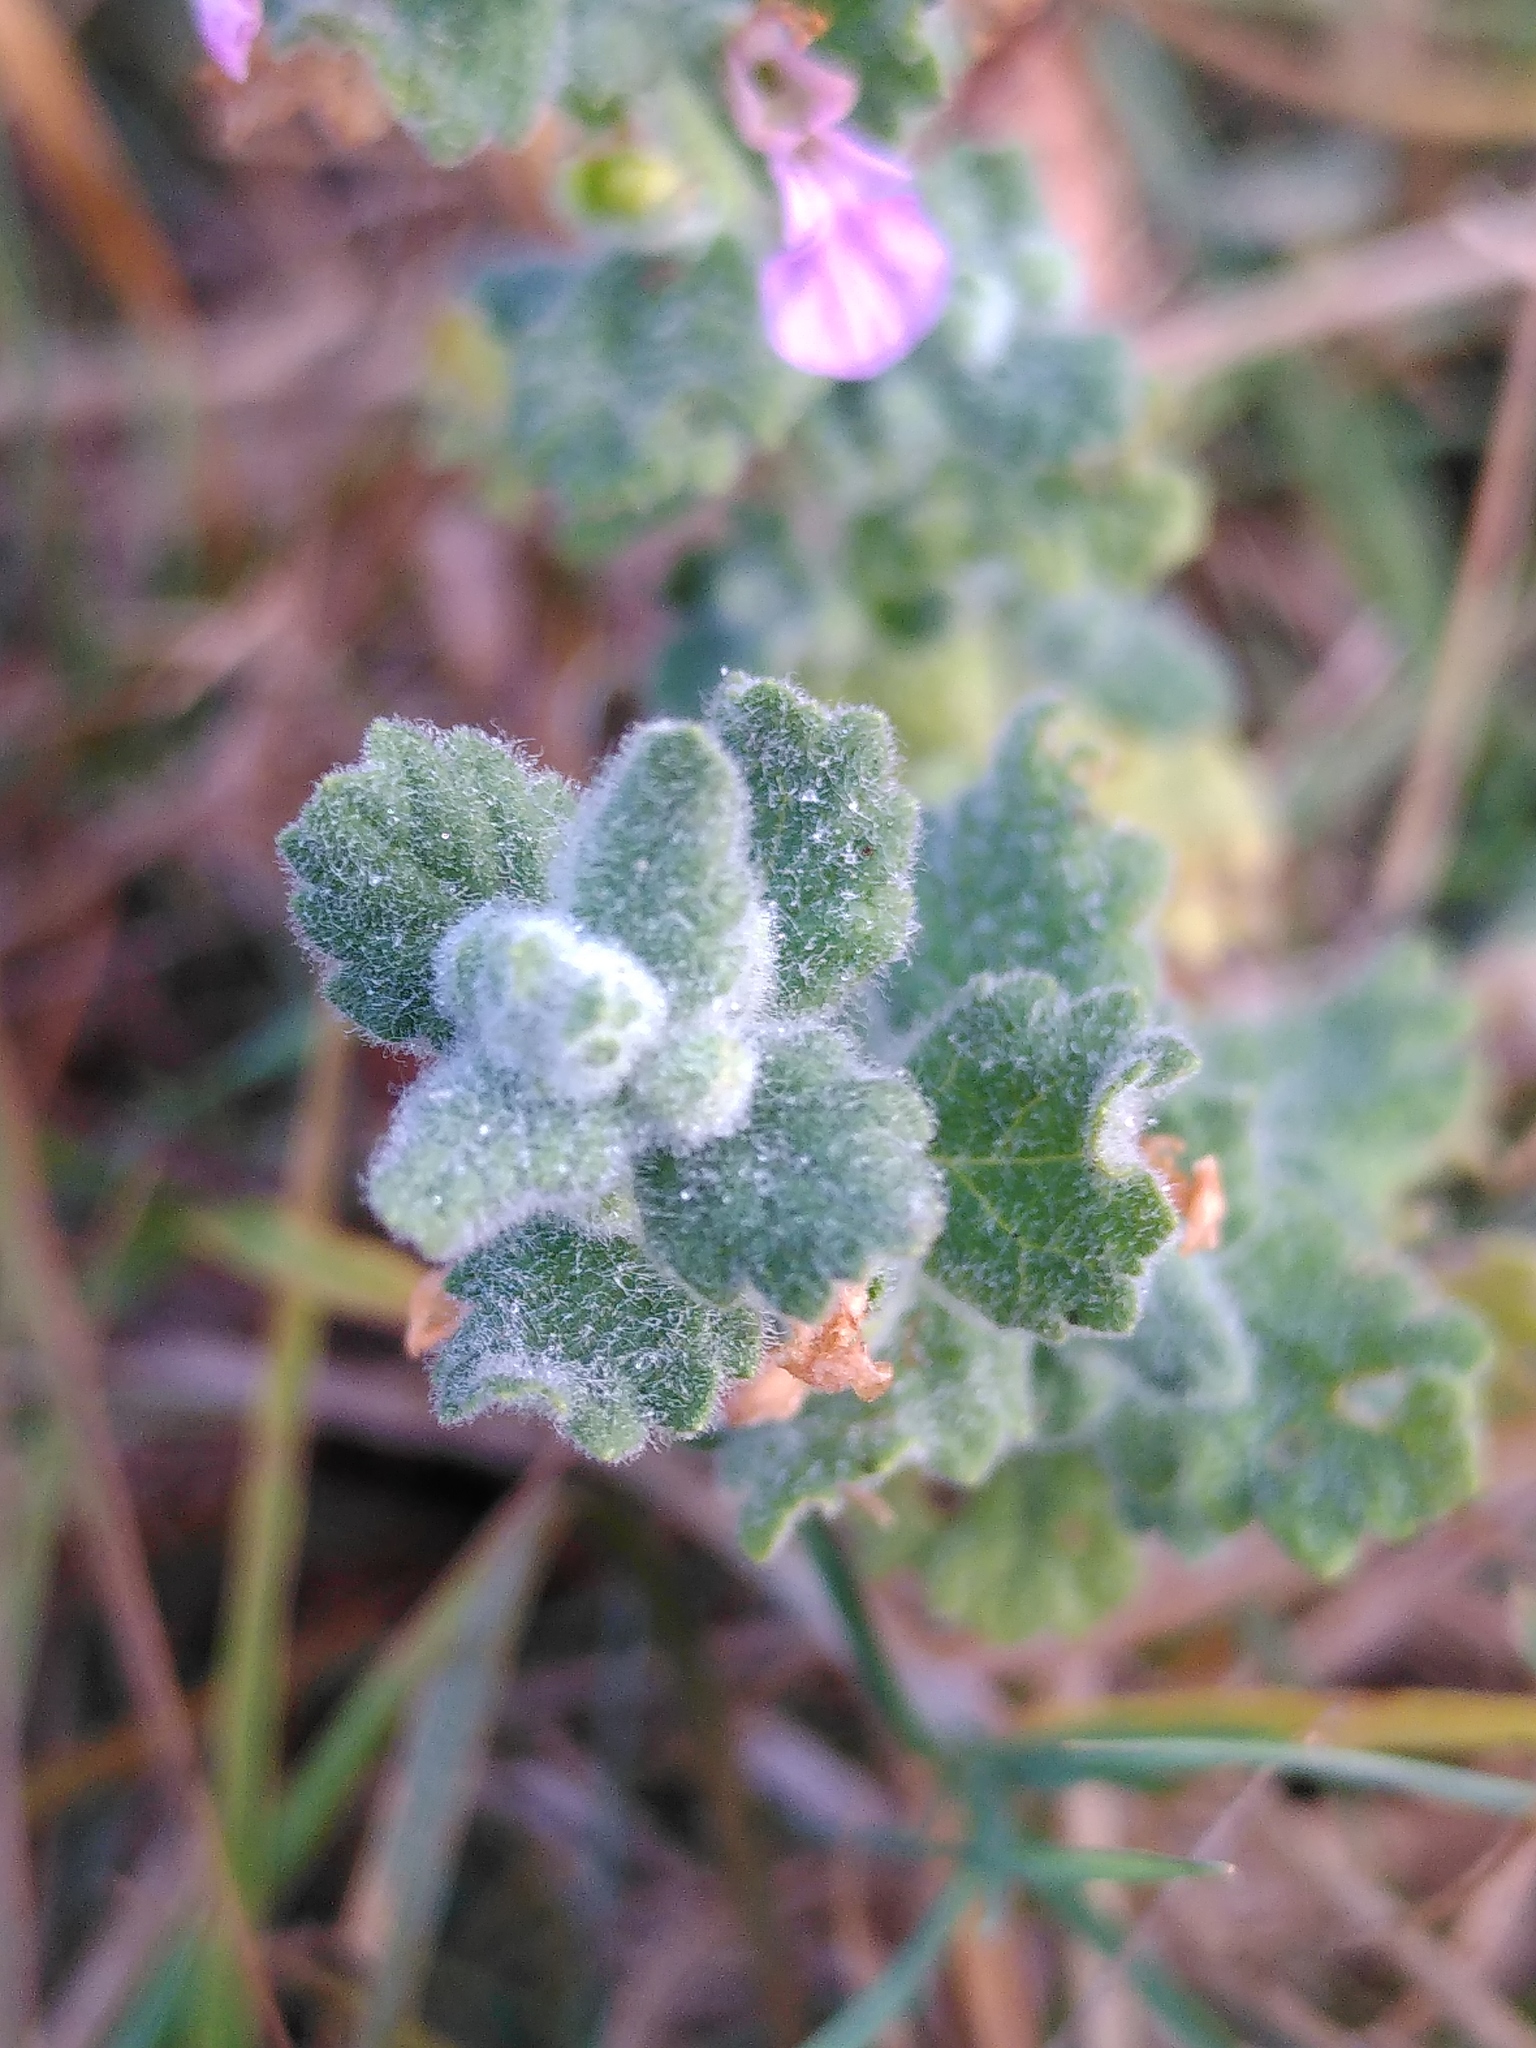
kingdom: Plantae
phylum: Tracheophyta
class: Magnoliopsida
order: Lamiales
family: Lamiaceae
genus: Teucrium
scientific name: Teucrium scordium
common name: Water germander
